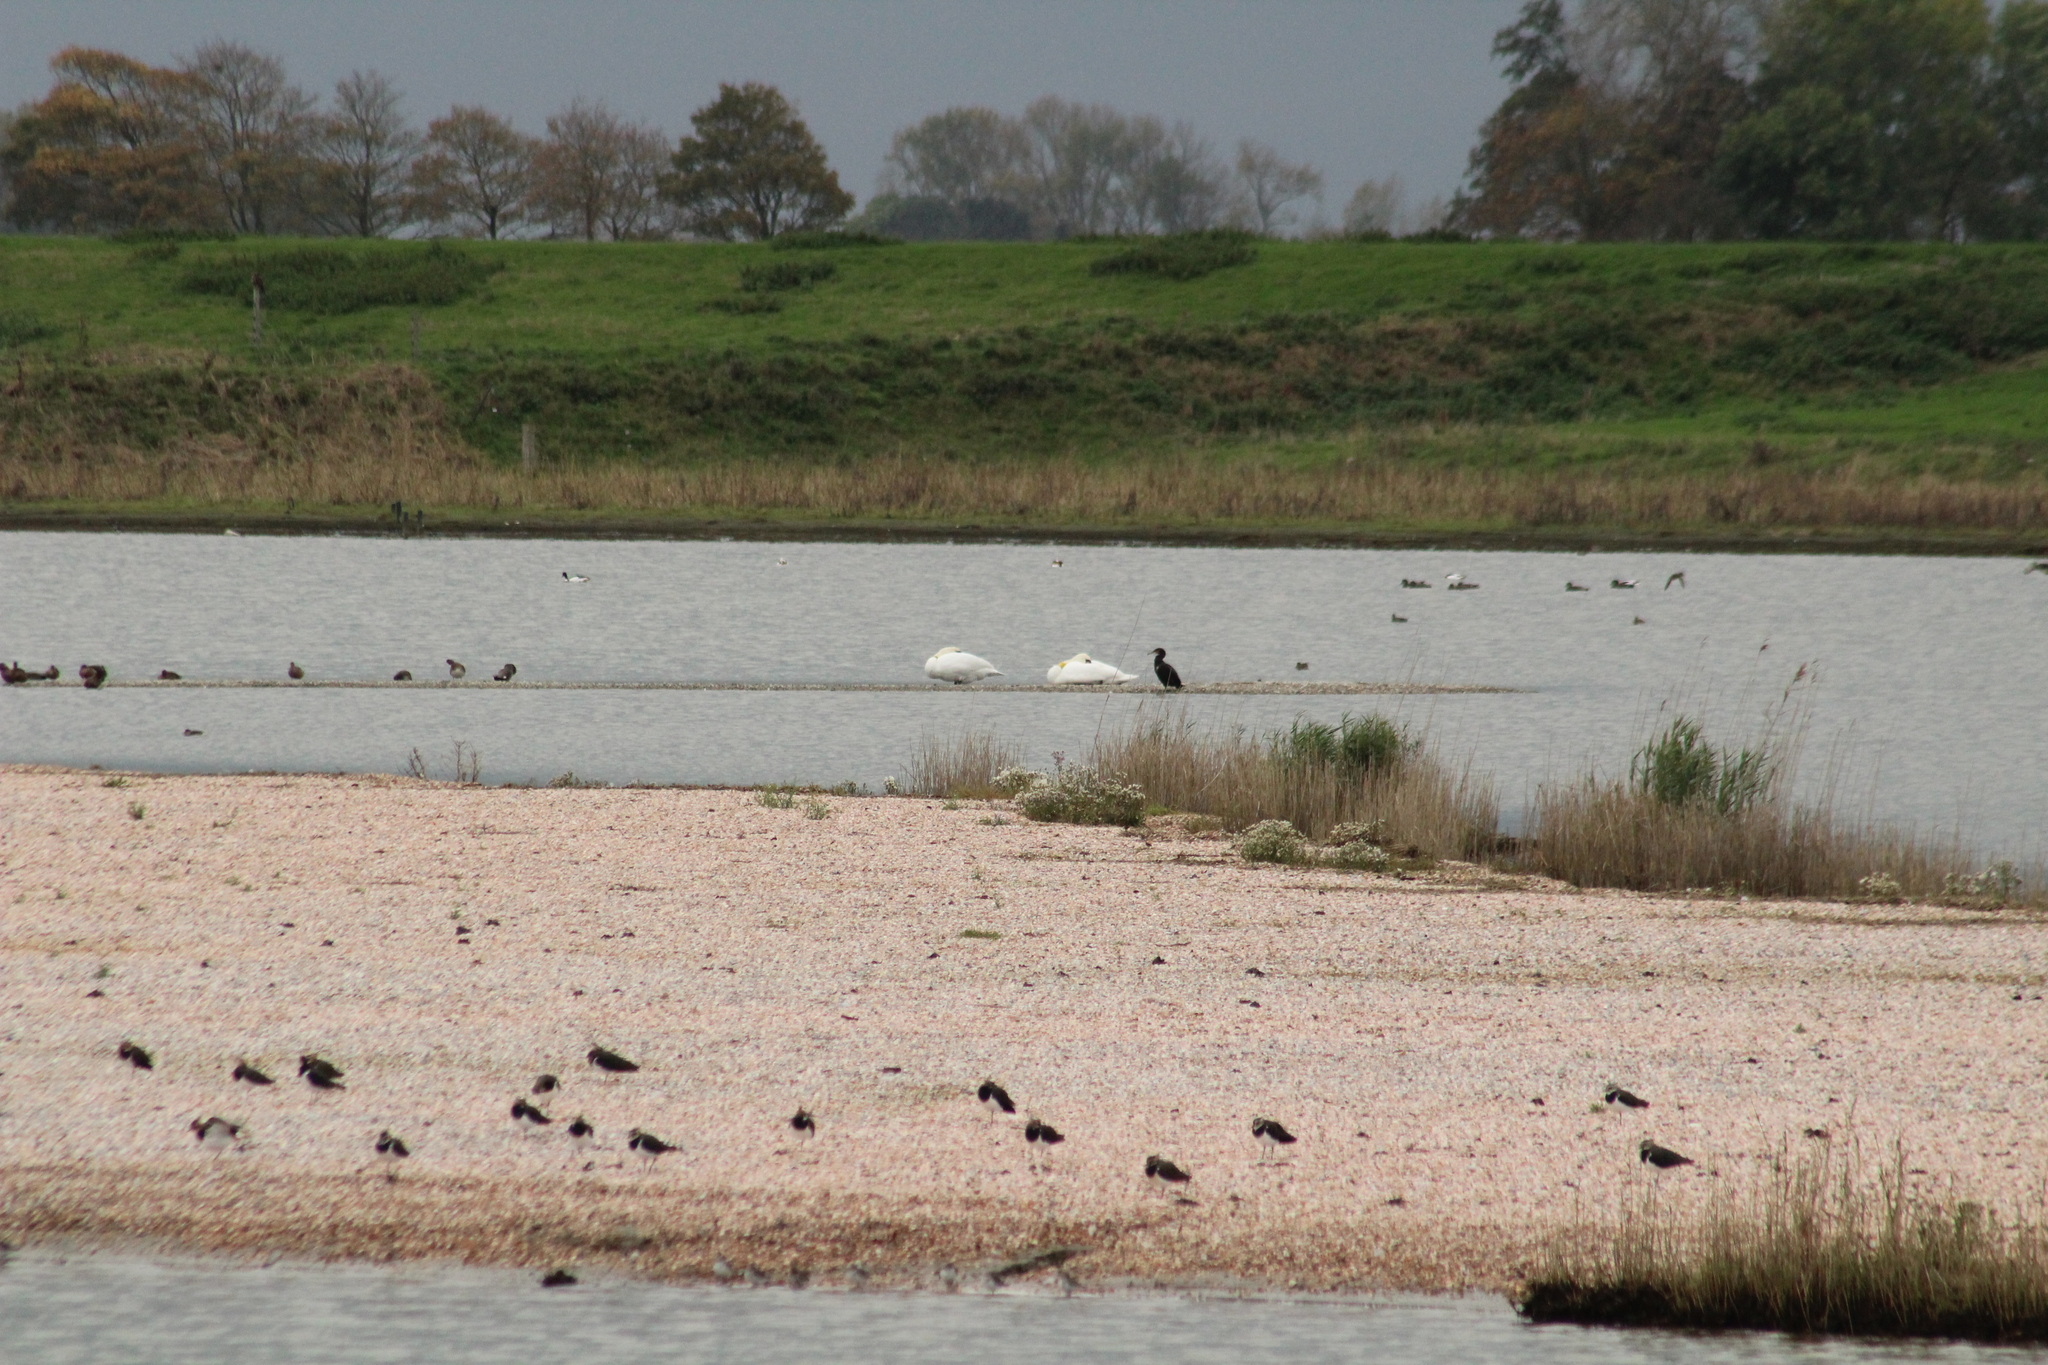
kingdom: Animalia
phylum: Chordata
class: Aves
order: Anseriformes
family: Anatidae
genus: Cygnus
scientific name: Cygnus olor
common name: Mute swan
